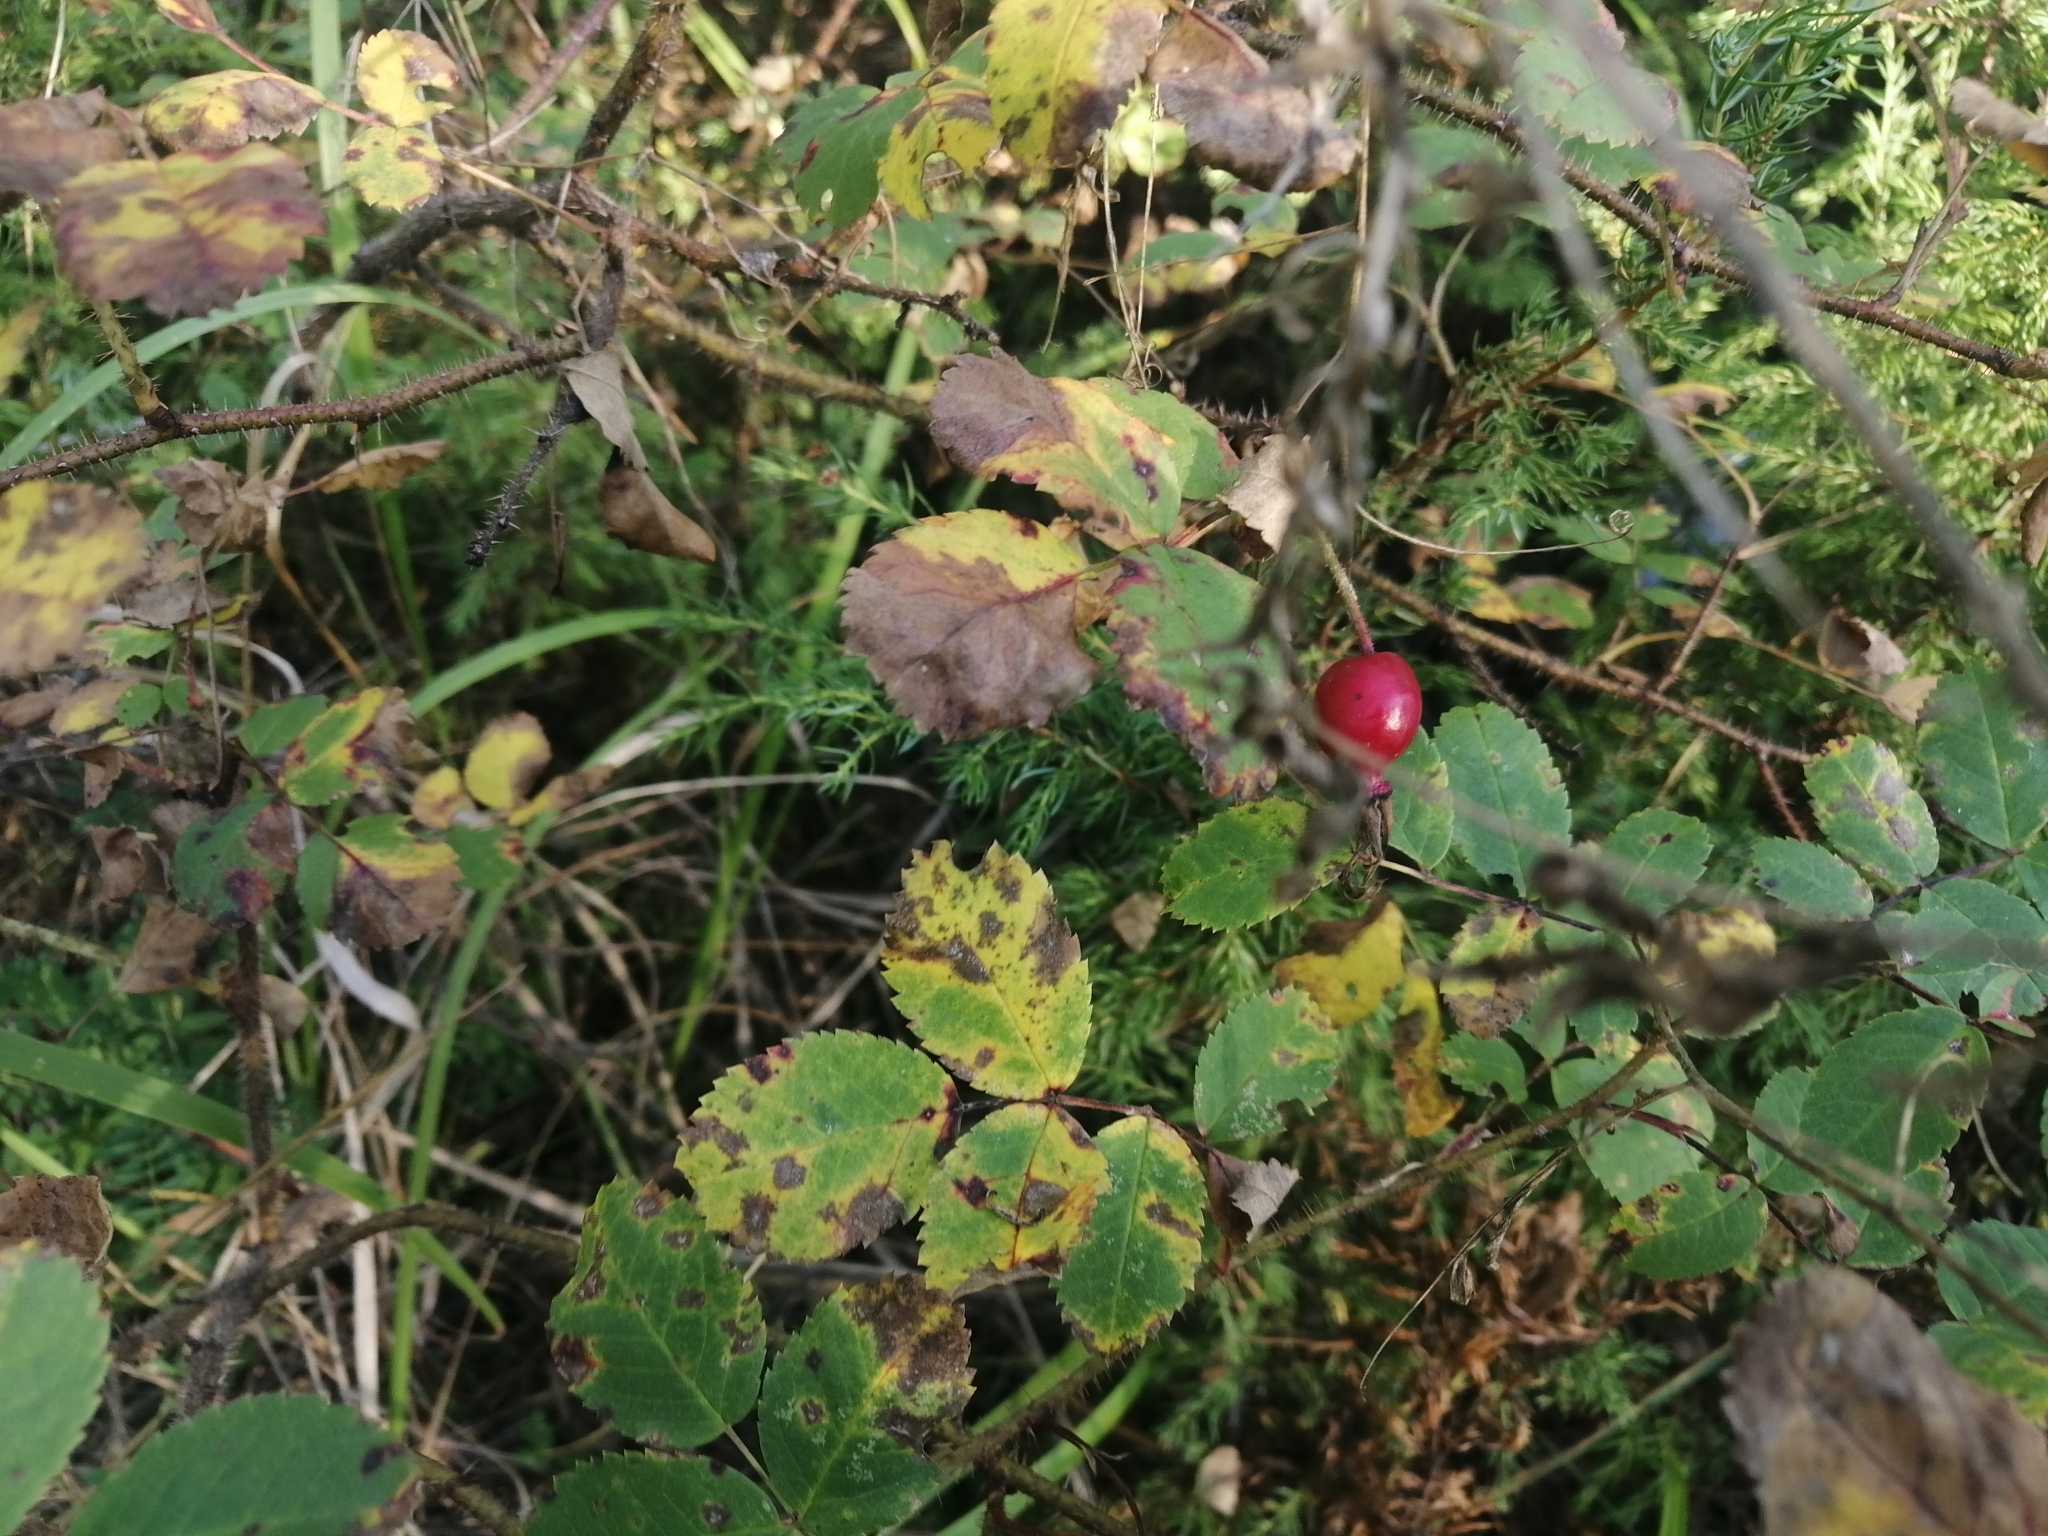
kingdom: Plantae
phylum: Tracheophyta
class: Magnoliopsida
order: Rosales
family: Rosaceae
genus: Rosa
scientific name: Rosa acicularis
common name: Prickly rose
